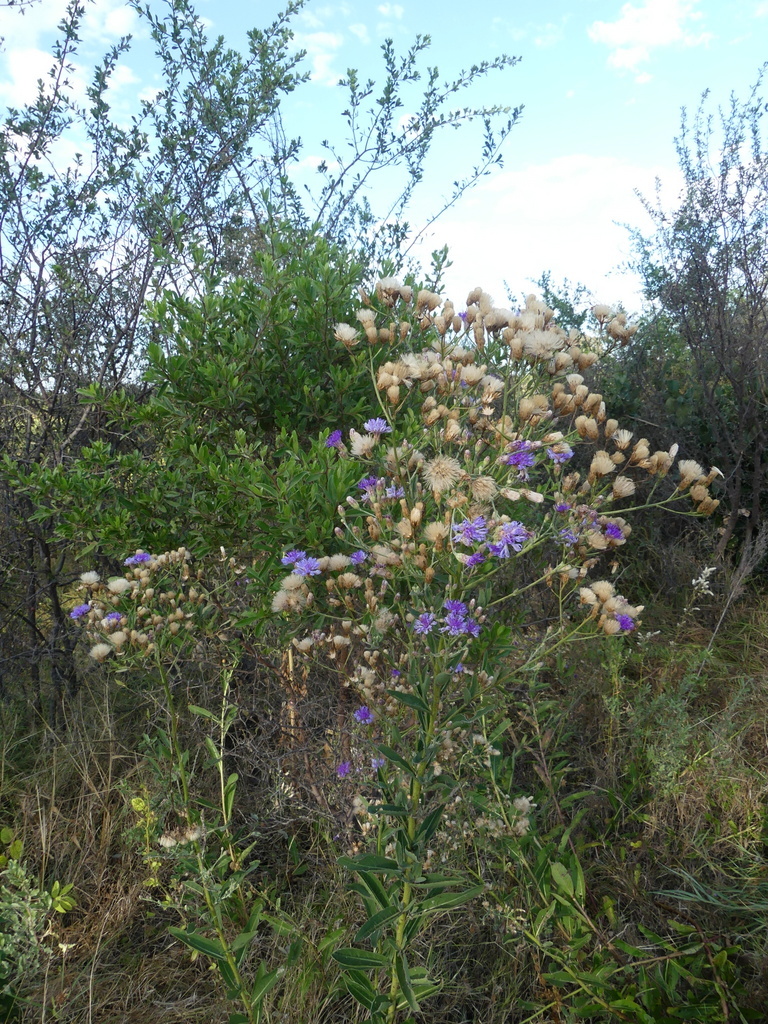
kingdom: Plantae
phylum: Tracheophyta
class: Magnoliopsida
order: Asterales
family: Asteraceae
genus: Linzia
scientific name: Linzia glabra
